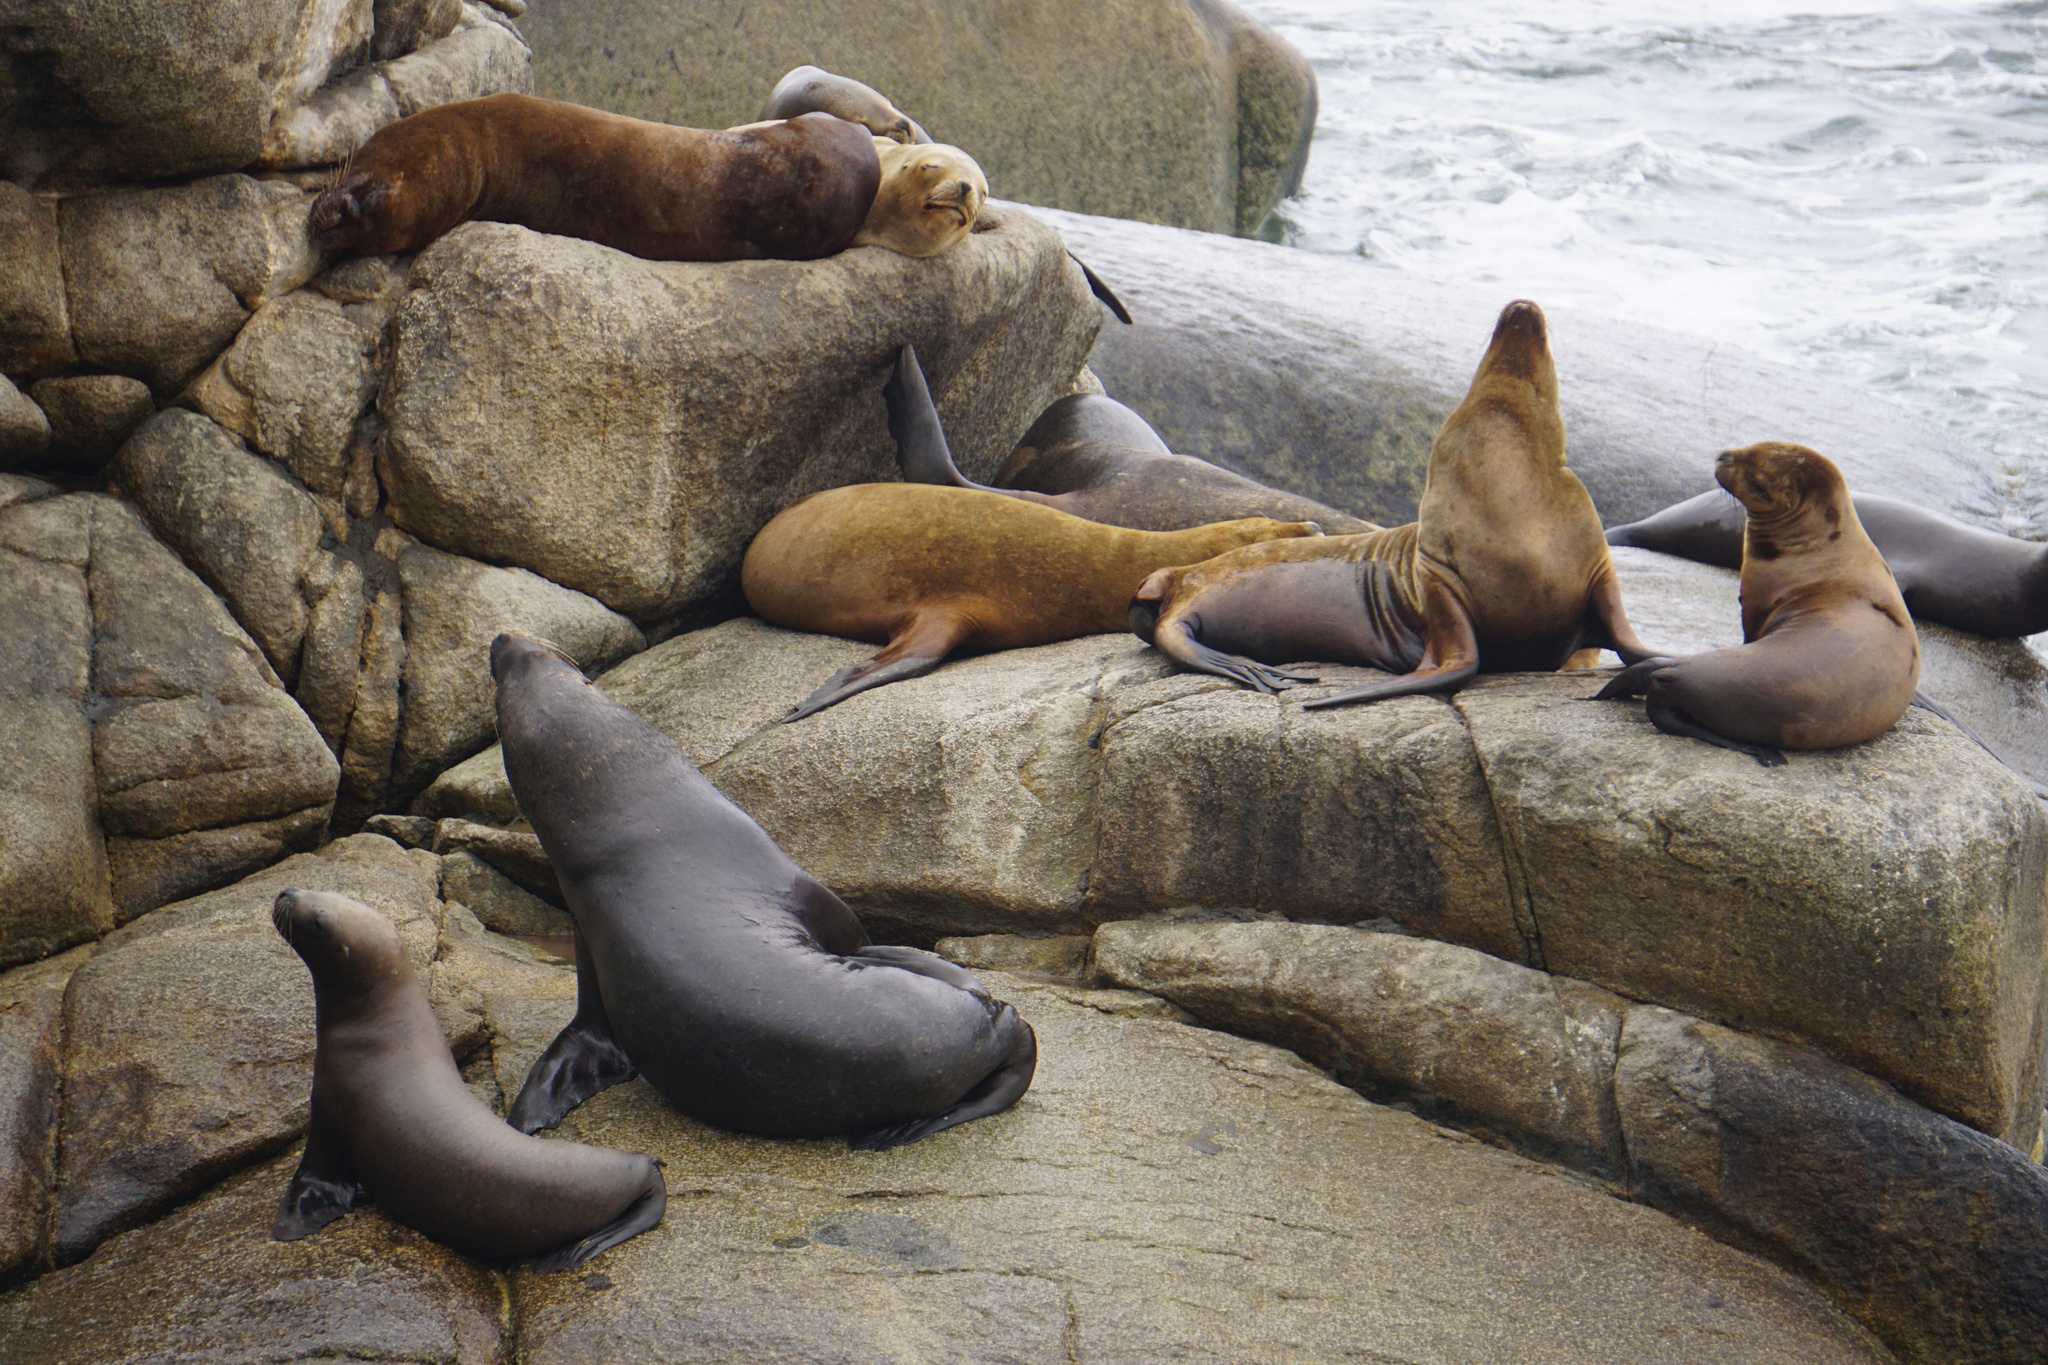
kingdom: Animalia
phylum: Chordata
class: Mammalia
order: Carnivora
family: Otariidae
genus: Otaria
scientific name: Otaria byronia
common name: South american sea lion
